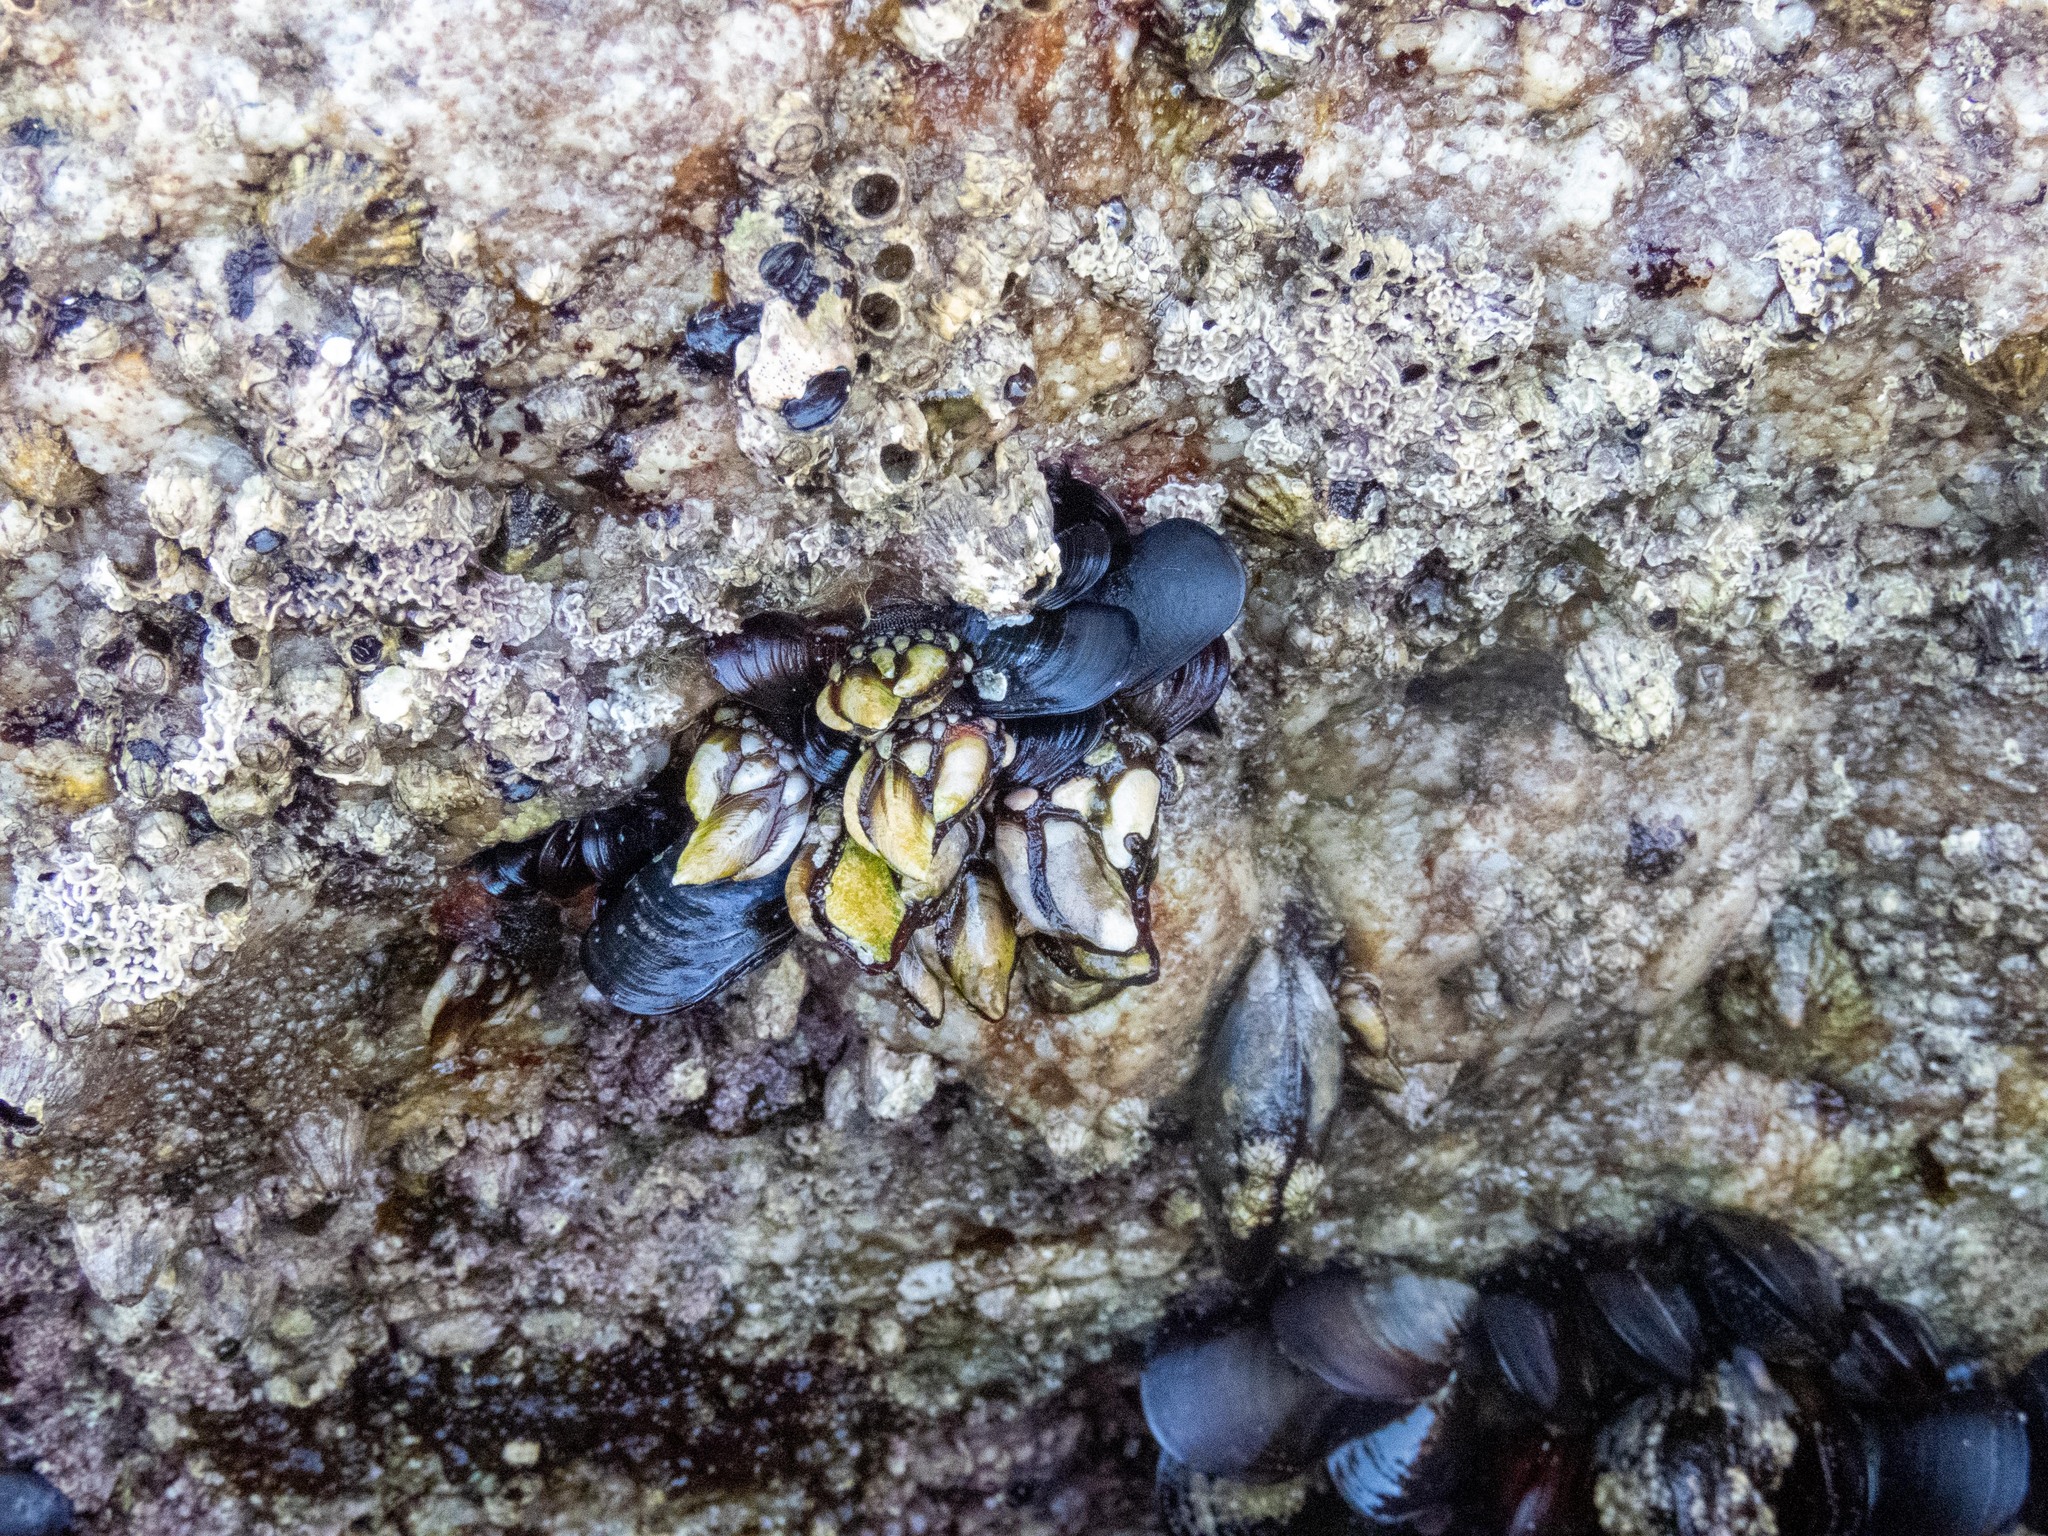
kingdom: Animalia
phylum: Arthropoda
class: Maxillopoda
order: Pedunculata
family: Pollicipedidae
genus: Pollicipes
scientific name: Pollicipes pollicipes
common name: Gooseneck barnacle
